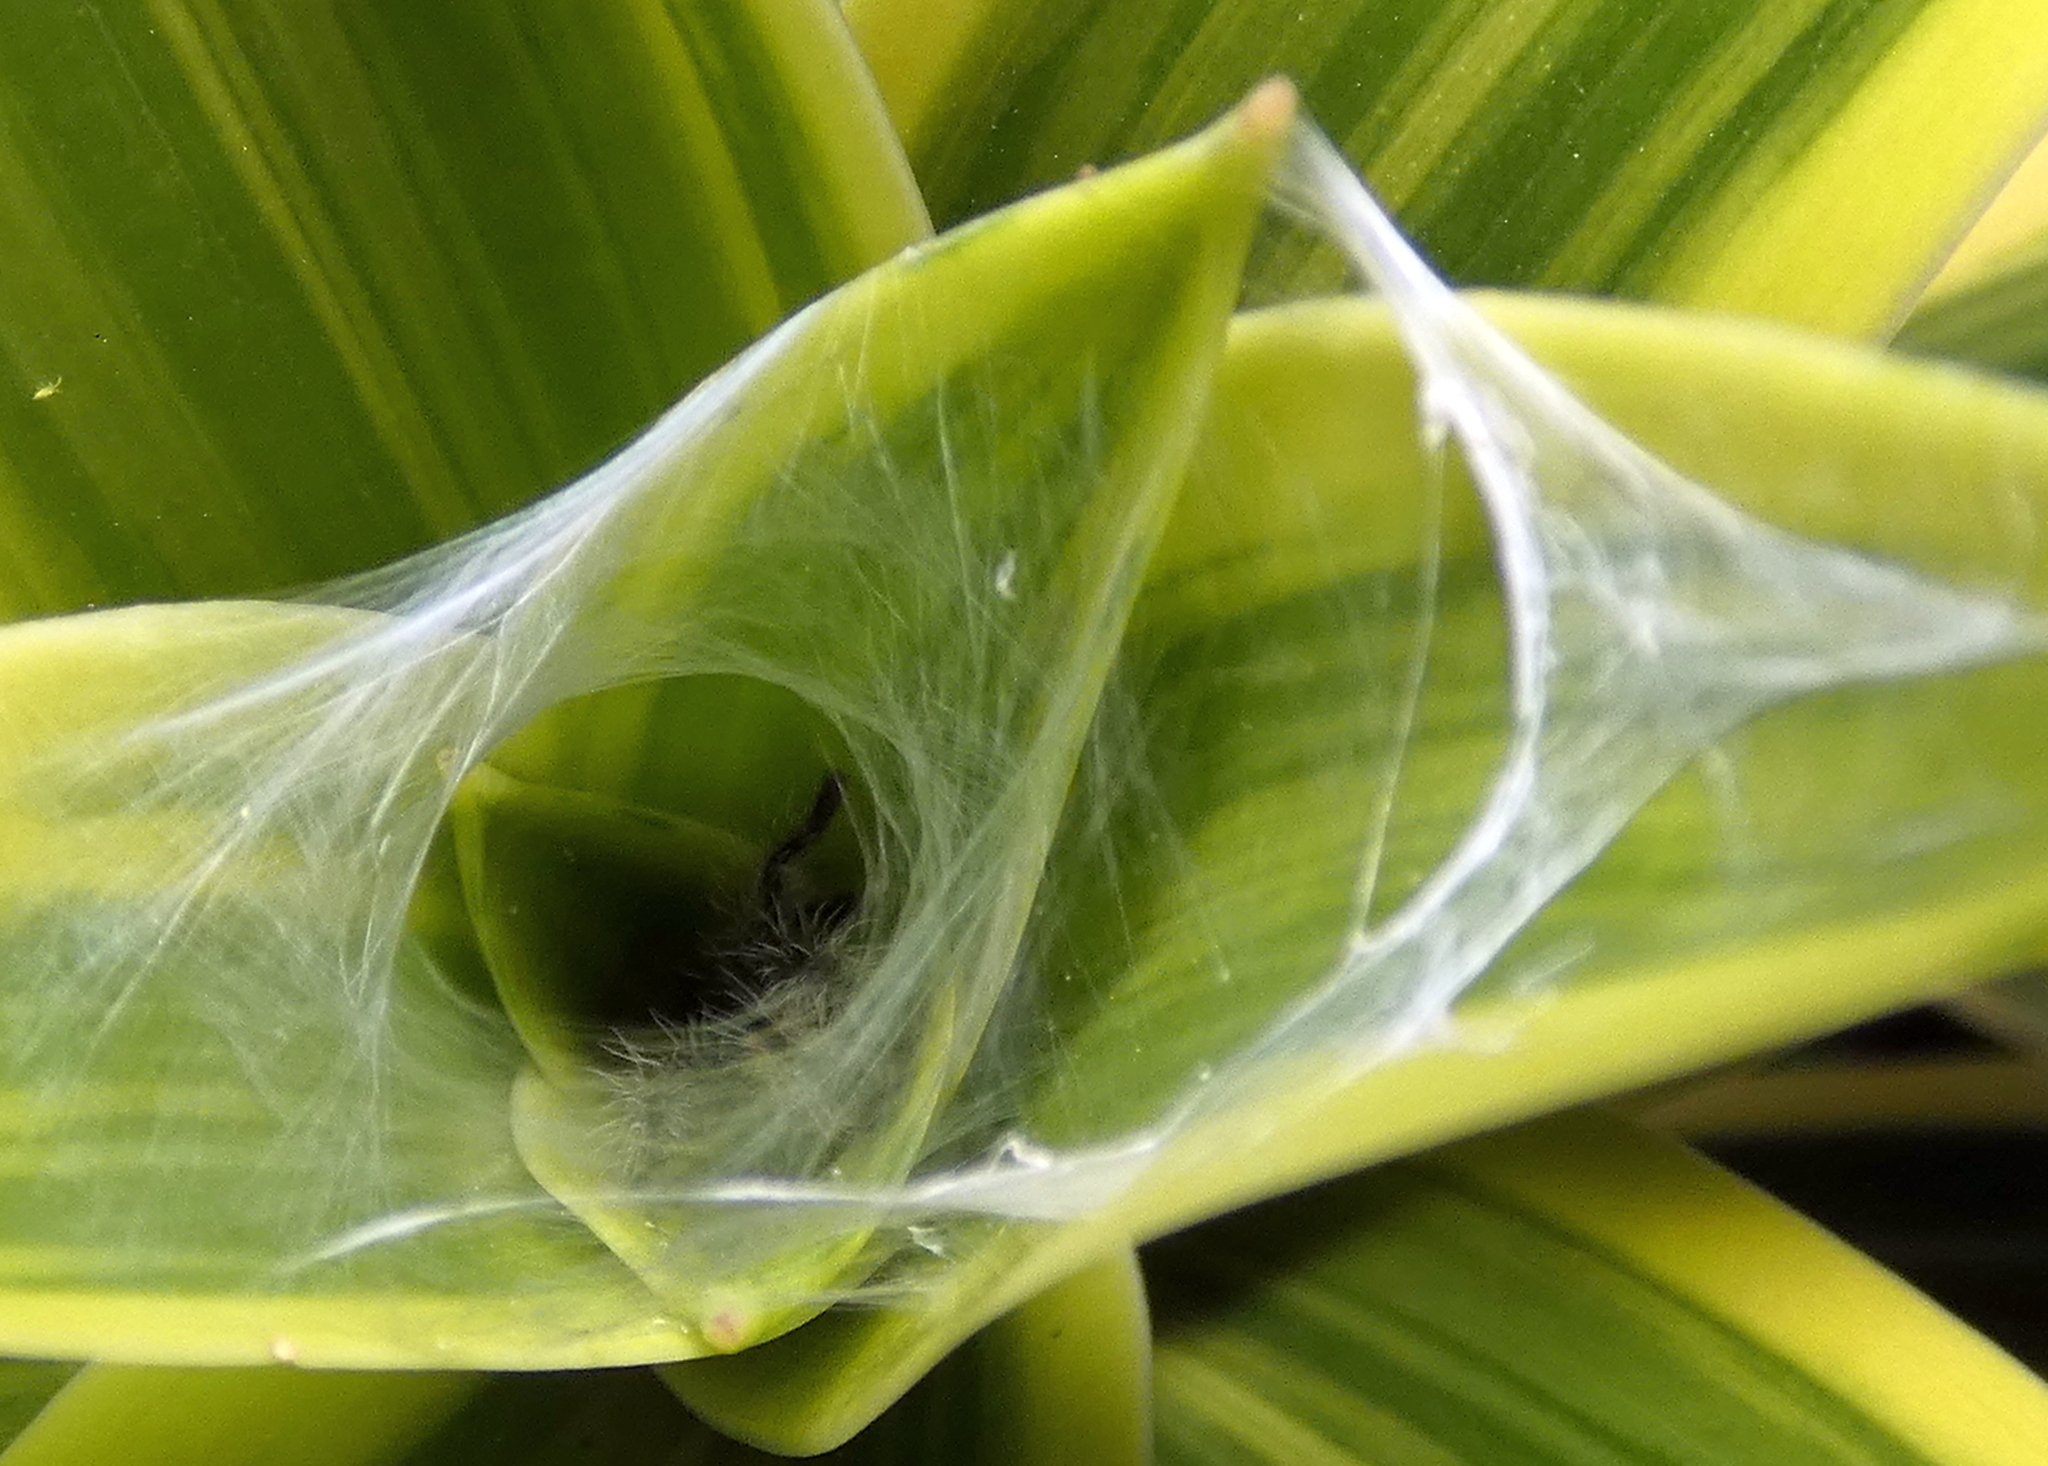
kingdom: Animalia
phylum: Arthropoda
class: Arachnida
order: Araneae
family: Theraphosidae
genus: Iridopelma
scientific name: Iridopelma hirsutum
